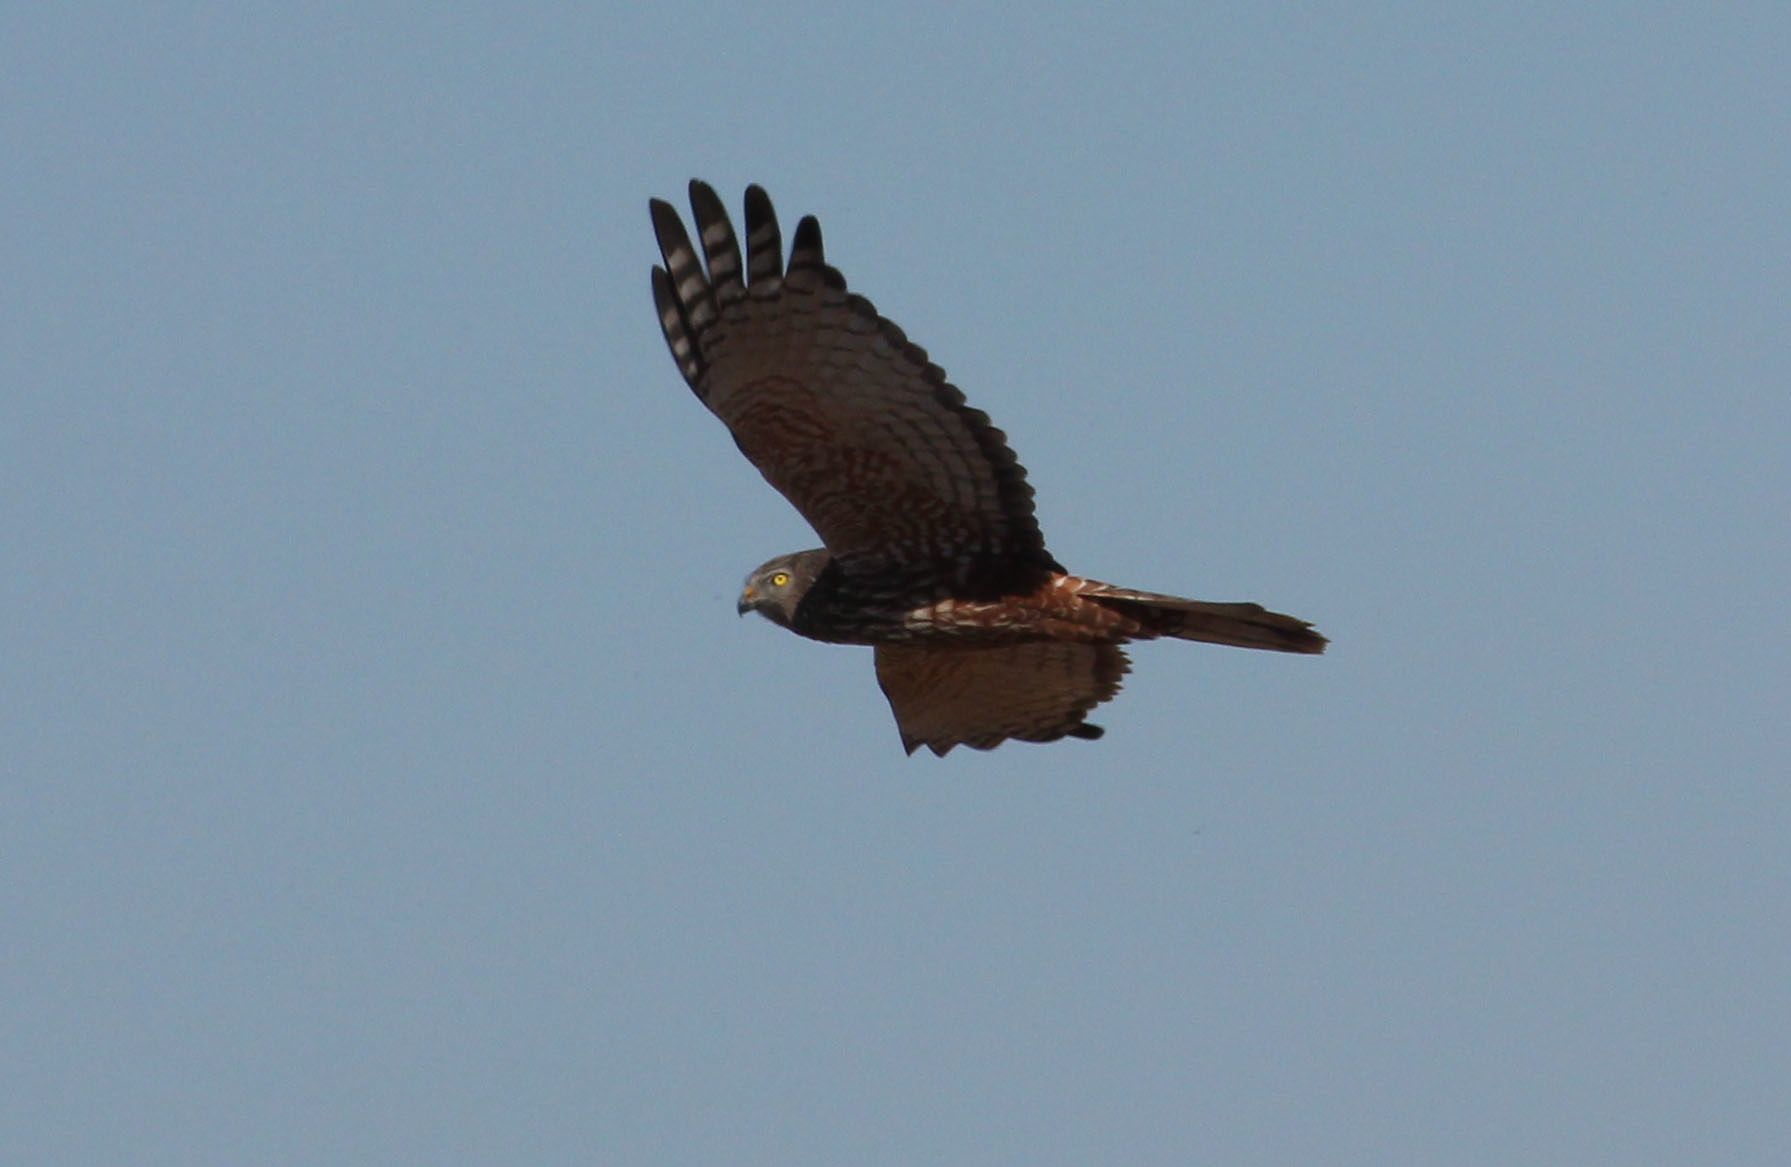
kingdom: Animalia
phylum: Chordata
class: Aves
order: Accipitriformes
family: Accipitridae
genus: Circus
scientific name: Circus ranivorus
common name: African marsh-harrier
